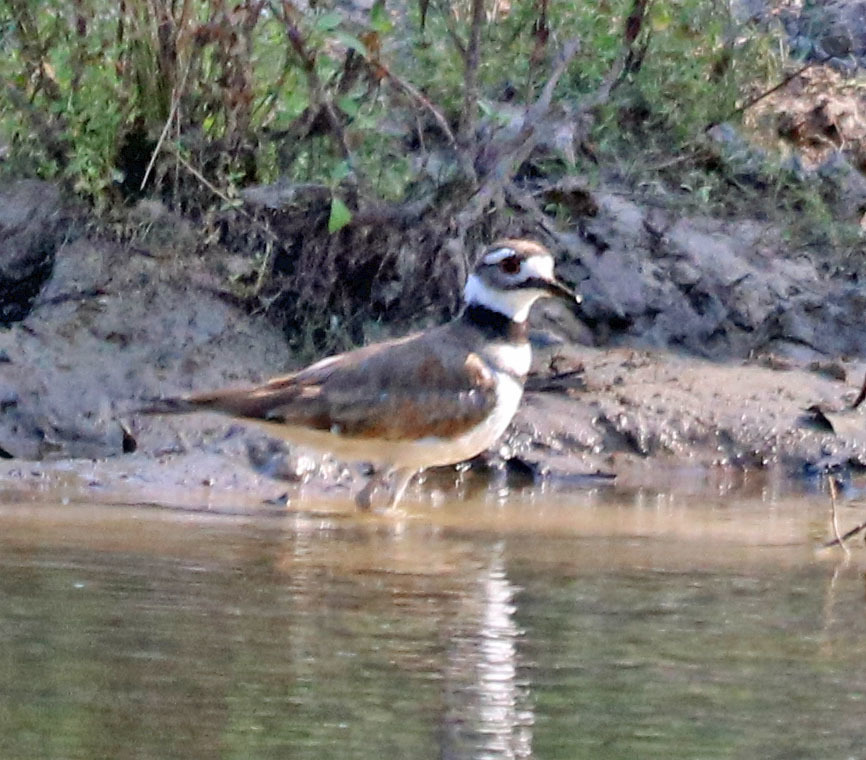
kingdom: Animalia
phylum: Chordata
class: Aves
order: Charadriiformes
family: Charadriidae
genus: Charadrius
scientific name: Charadrius vociferus
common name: Killdeer
